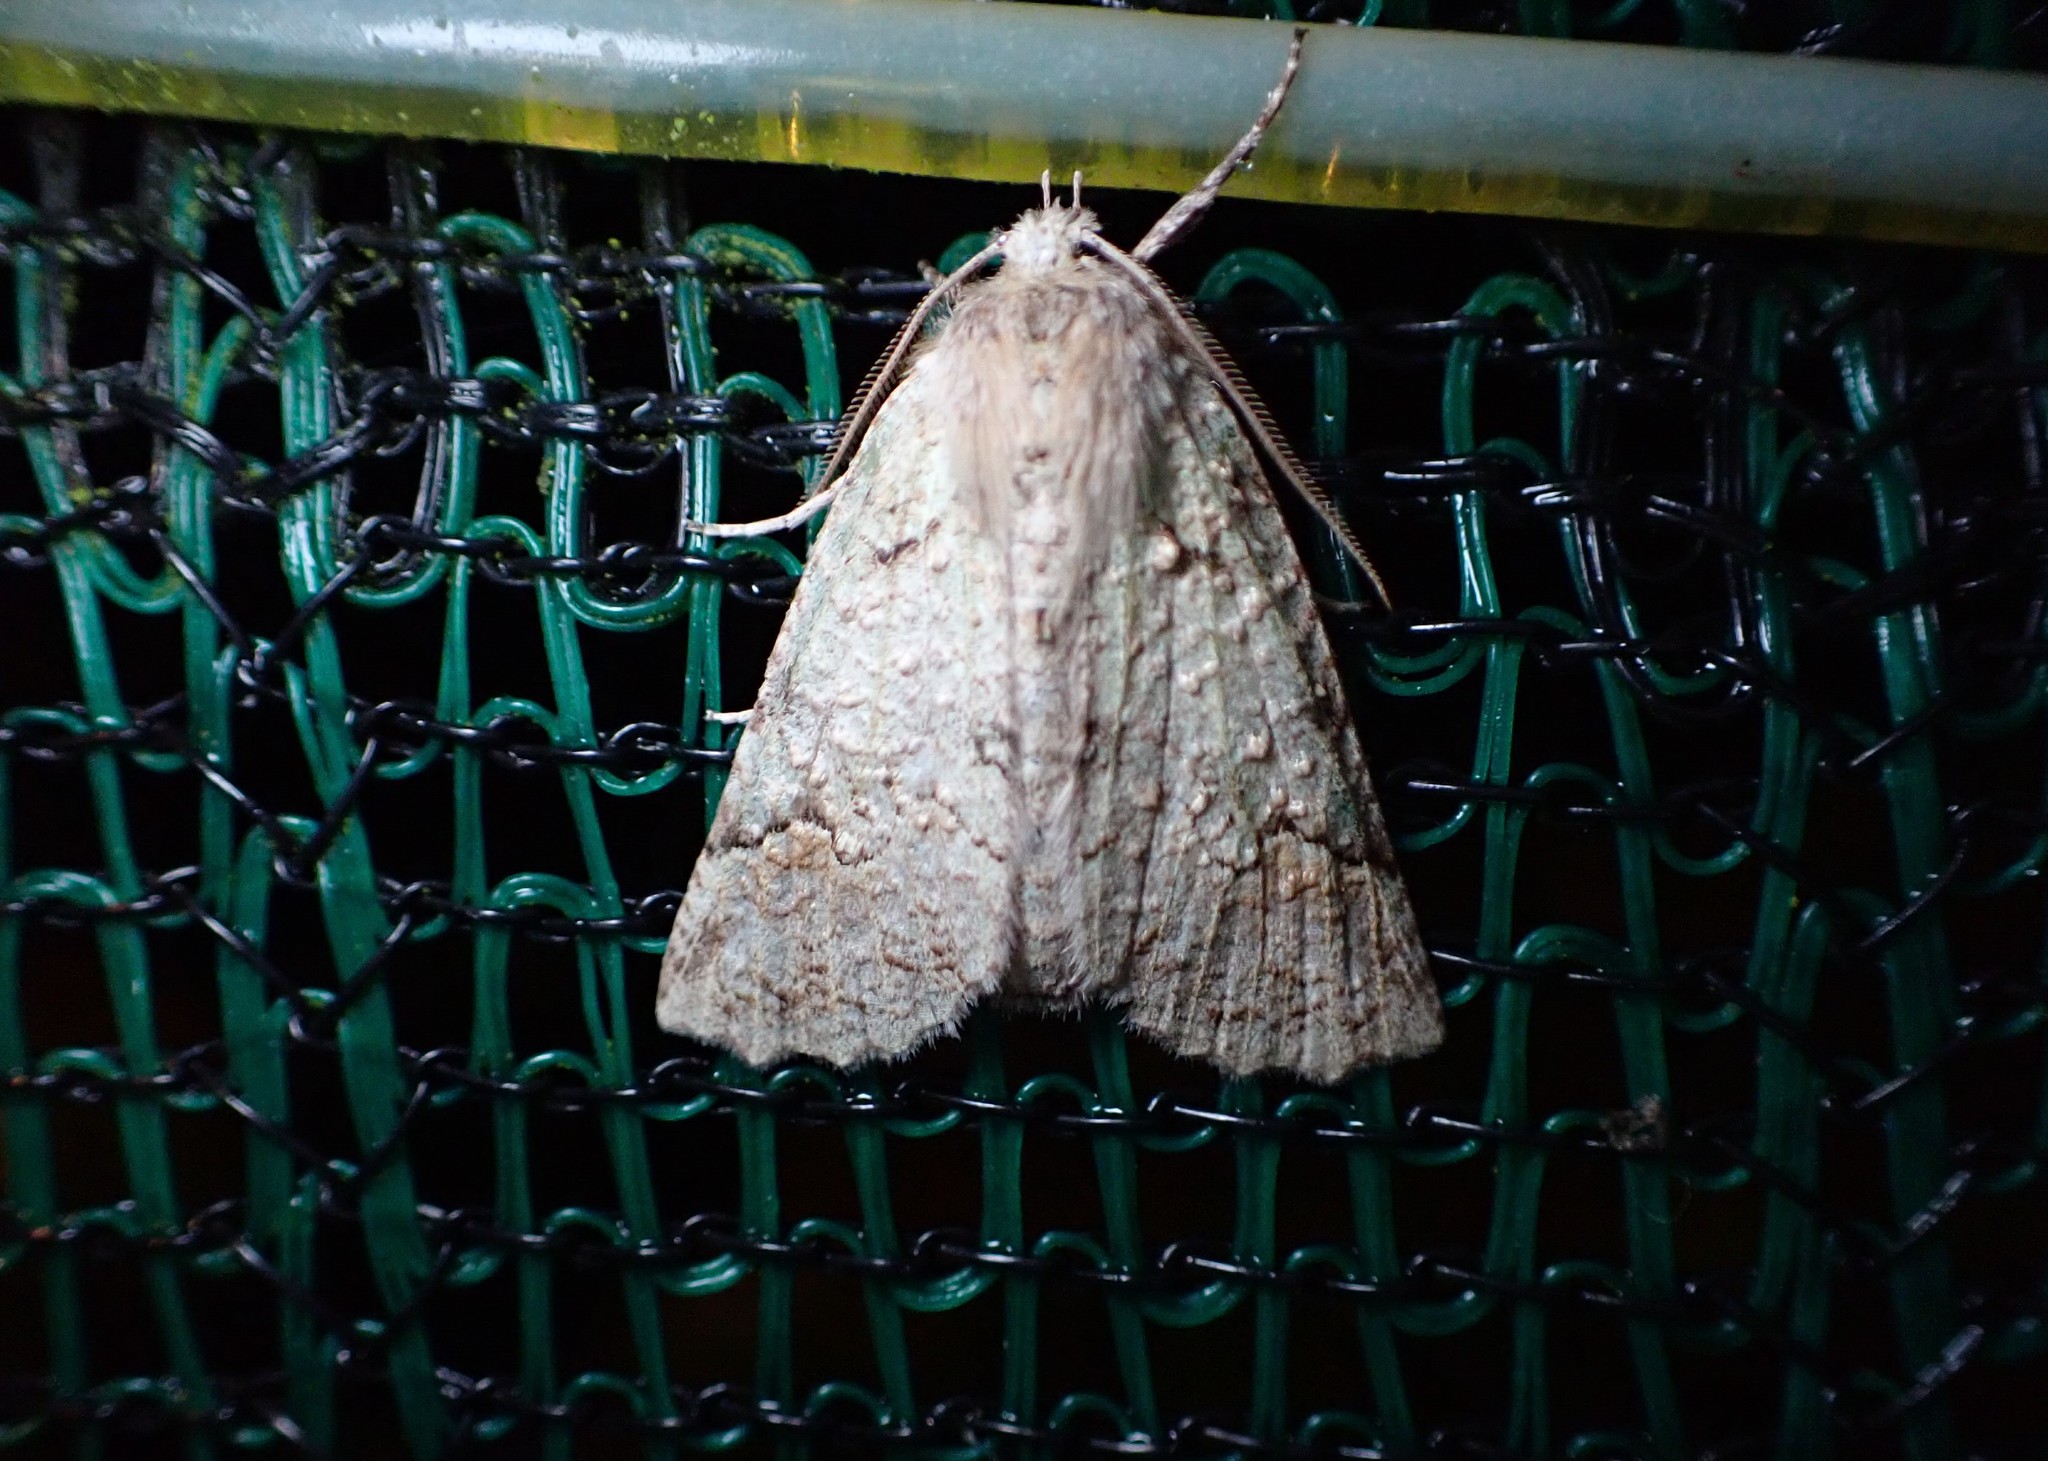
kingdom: Animalia
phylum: Arthropoda
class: Insecta
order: Lepidoptera
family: Geometridae
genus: Declana
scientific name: Declana floccosa
